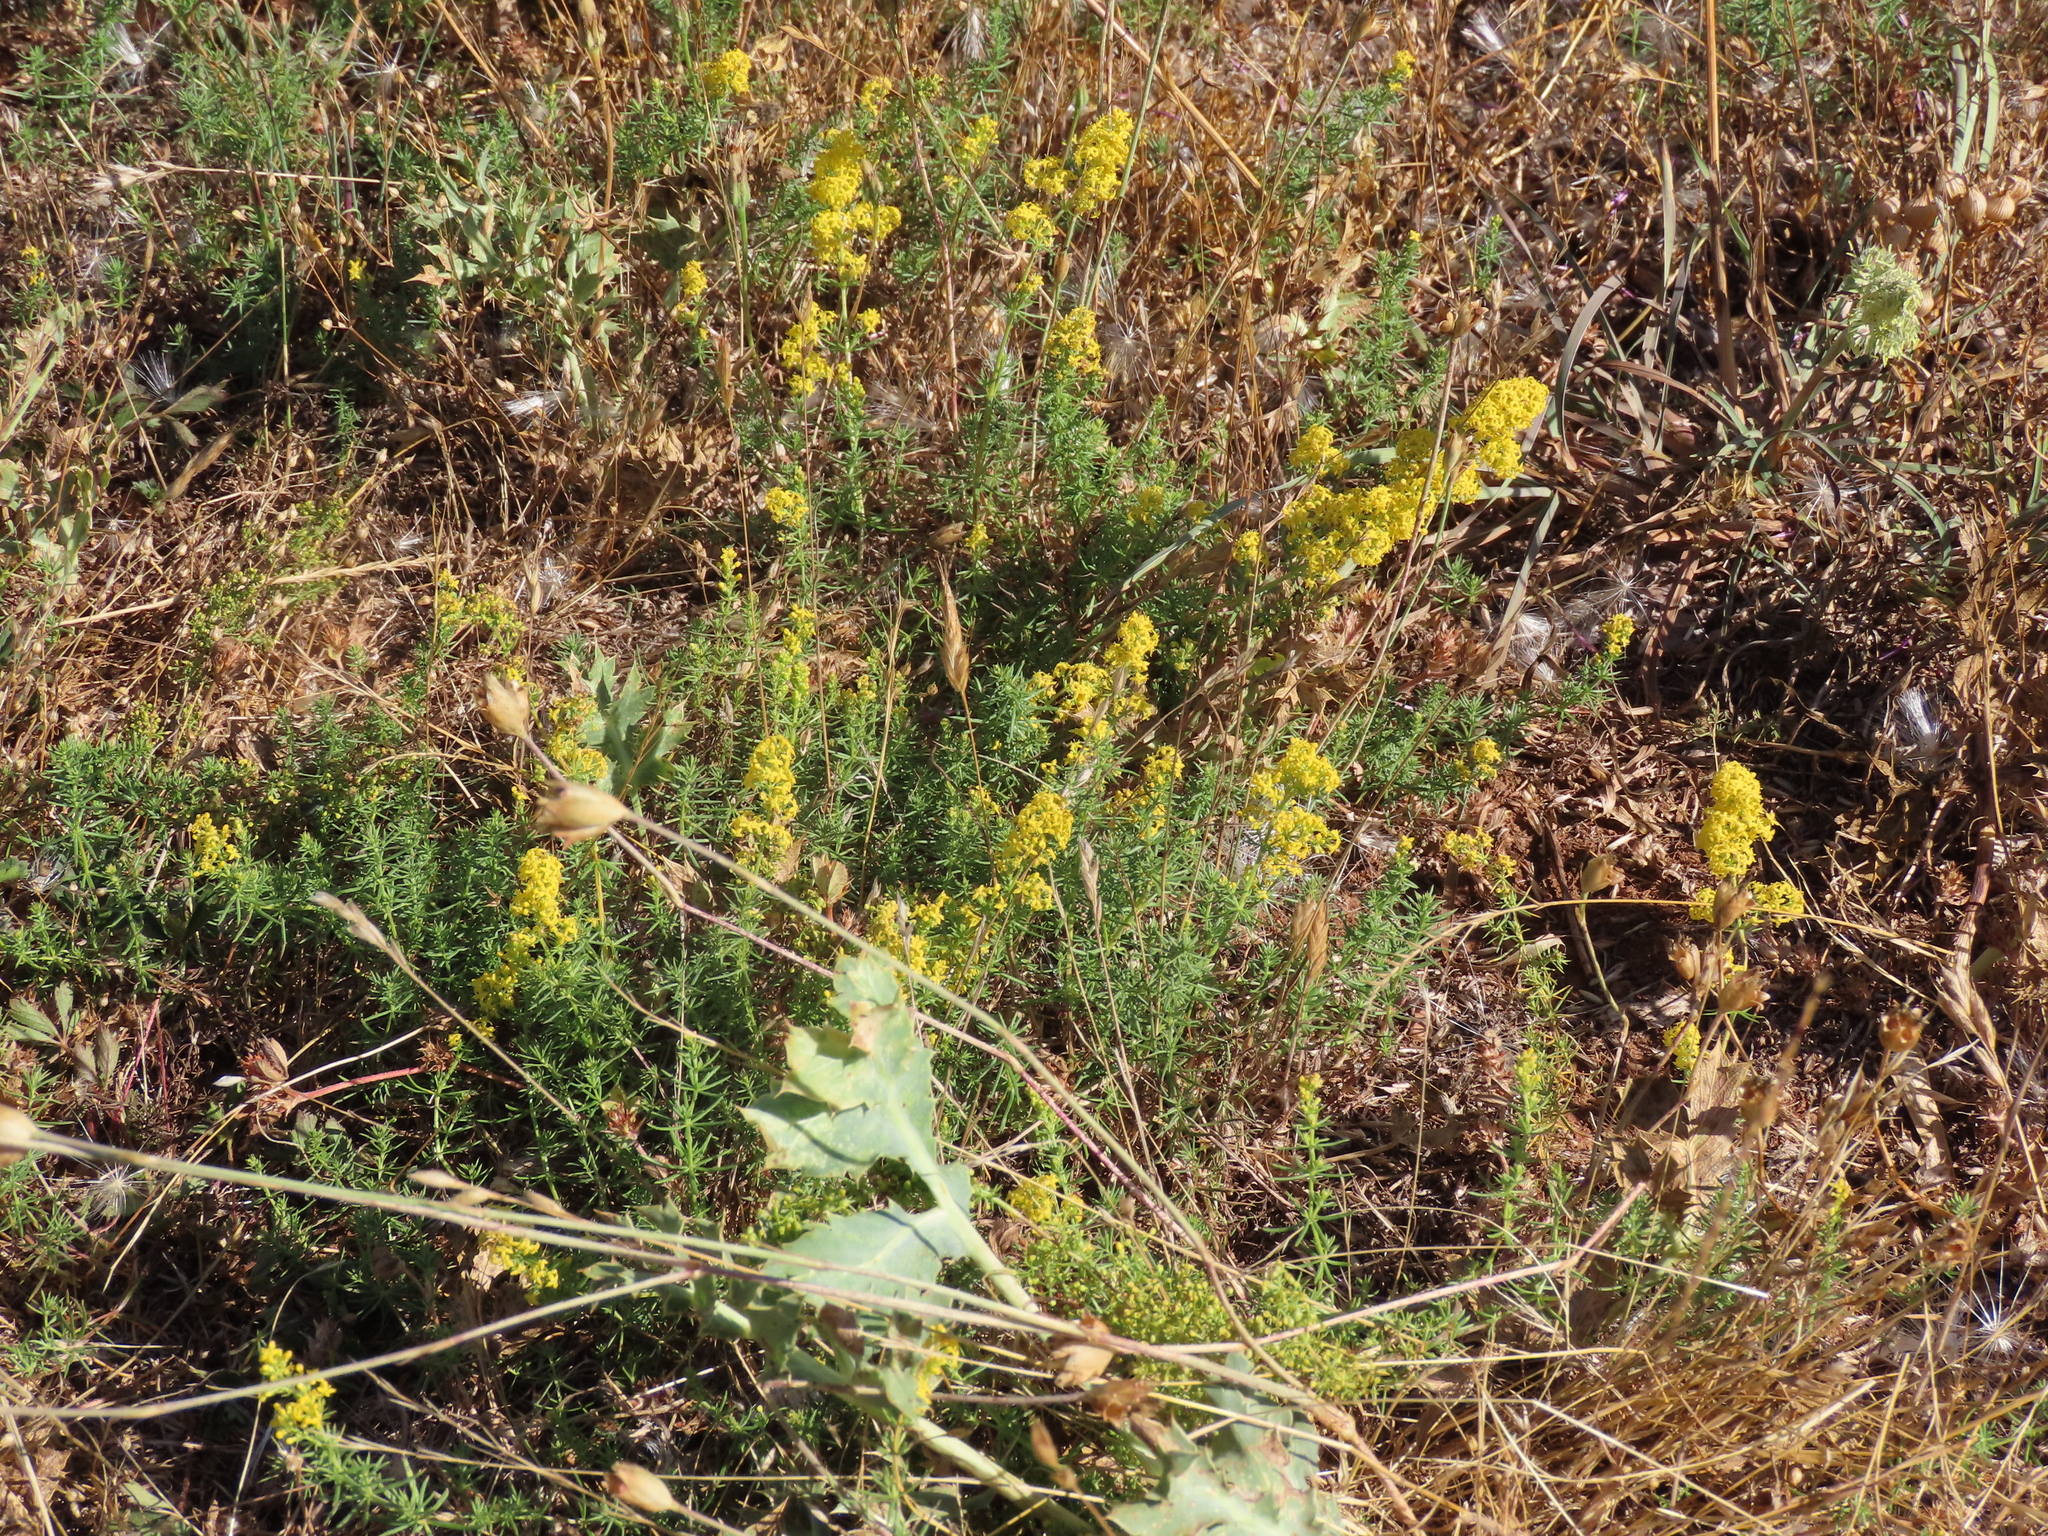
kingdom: Plantae
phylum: Tracheophyta
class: Magnoliopsida
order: Gentianales
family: Rubiaceae
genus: Galium
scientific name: Galium verum
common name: Lady's bedstraw
